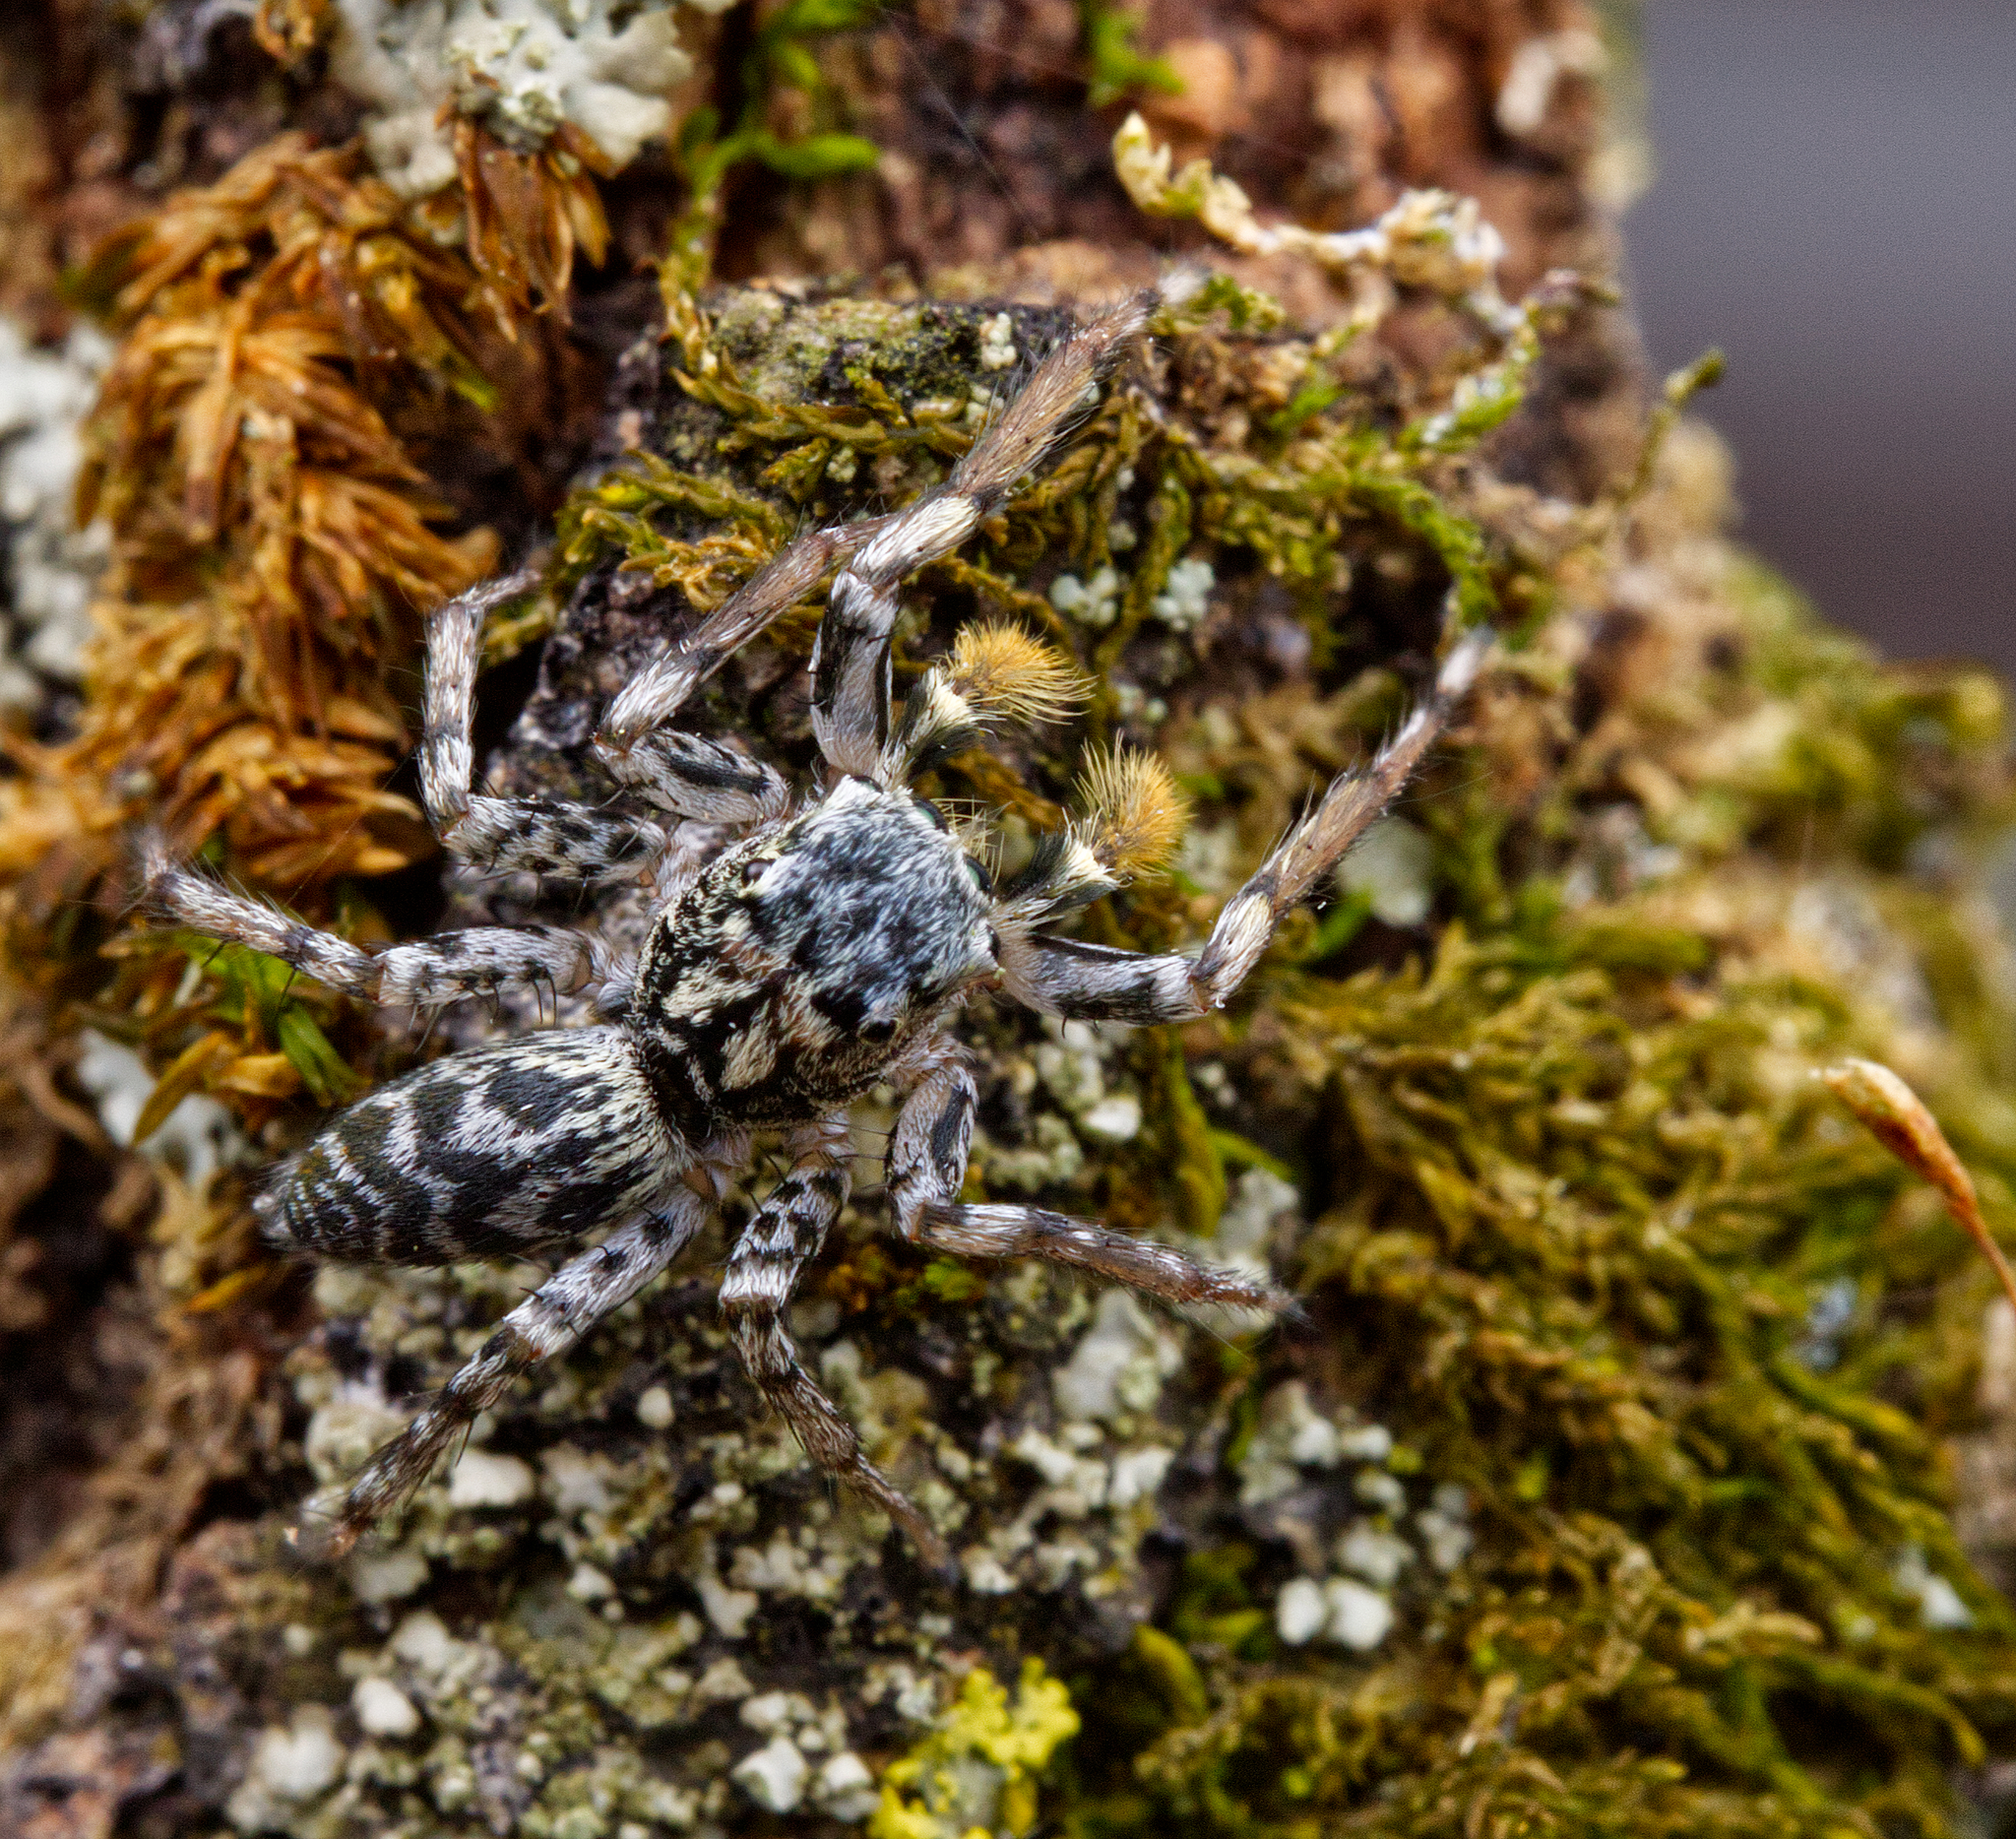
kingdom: Animalia
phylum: Arthropoda
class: Arachnida
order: Araneae
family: Salticidae
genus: Maevia
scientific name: Maevia inclemens
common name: Dimorphic jumper
